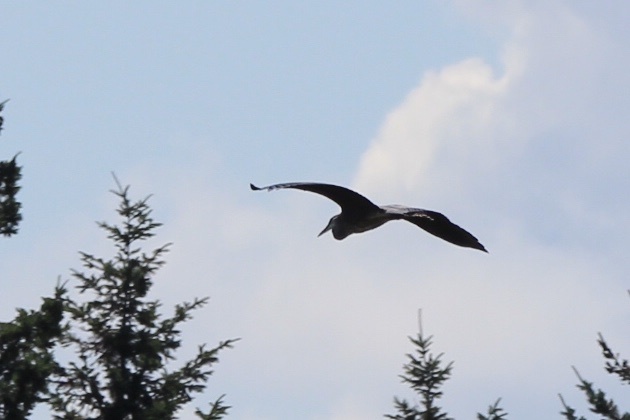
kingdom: Animalia
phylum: Chordata
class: Aves
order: Pelecaniformes
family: Ardeidae
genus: Ardea
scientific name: Ardea herodias
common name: Great blue heron
